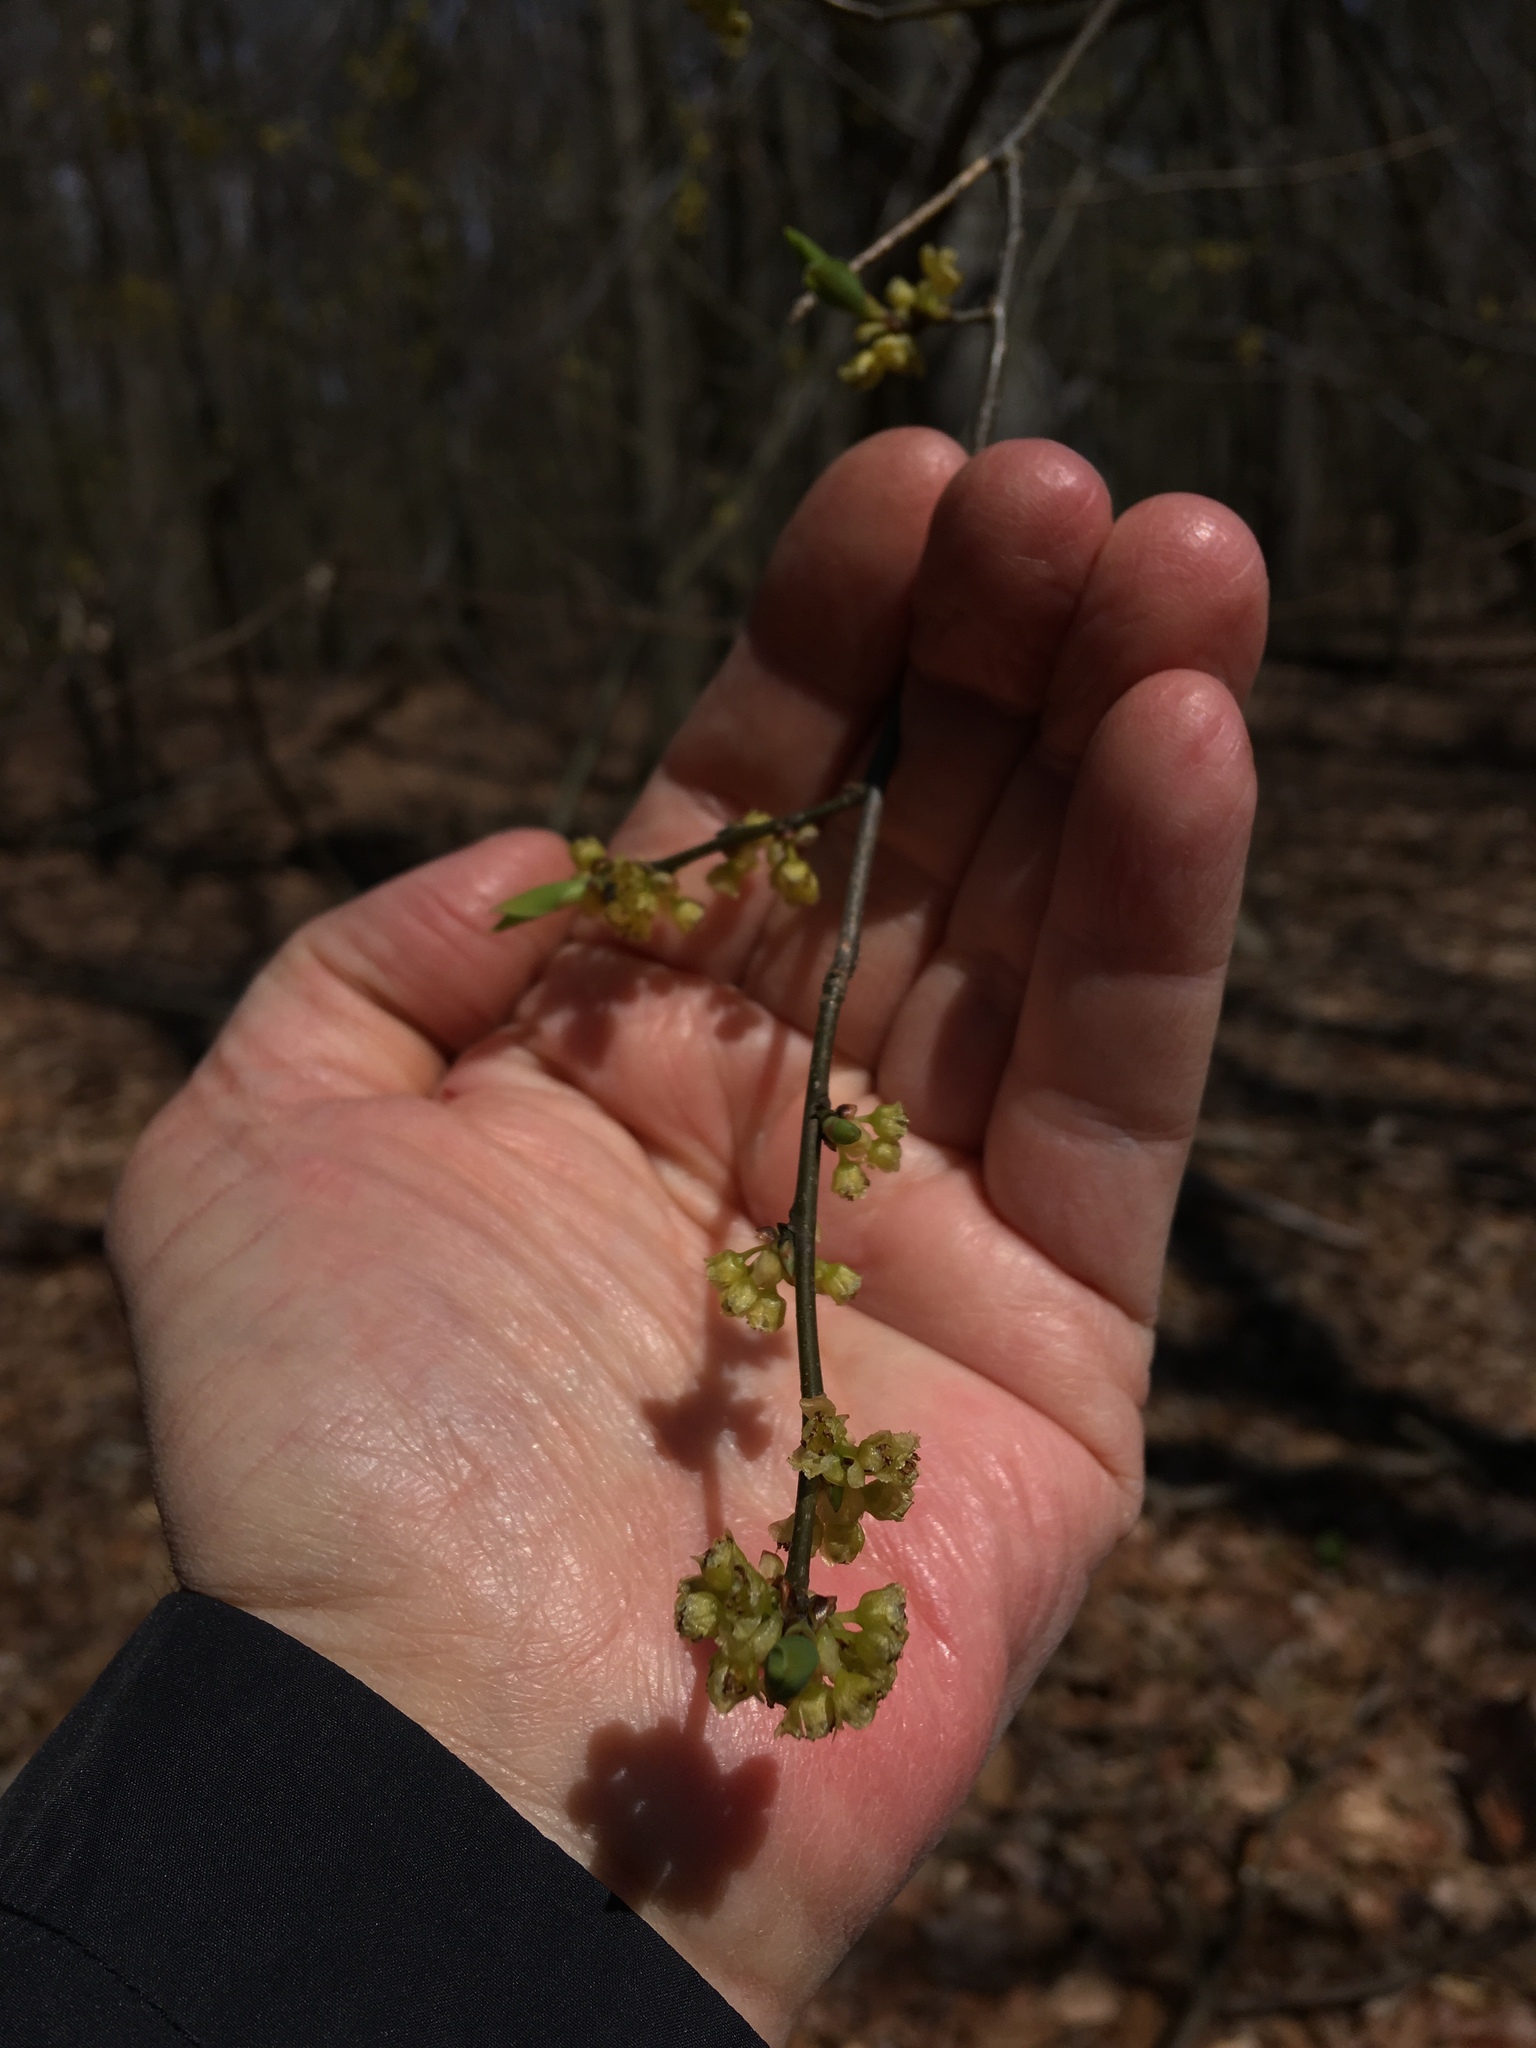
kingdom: Plantae
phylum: Tracheophyta
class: Magnoliopsida
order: Laurales
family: Lauraceae
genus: Lindera
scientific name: Lindera benzoin
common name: Spicebush
